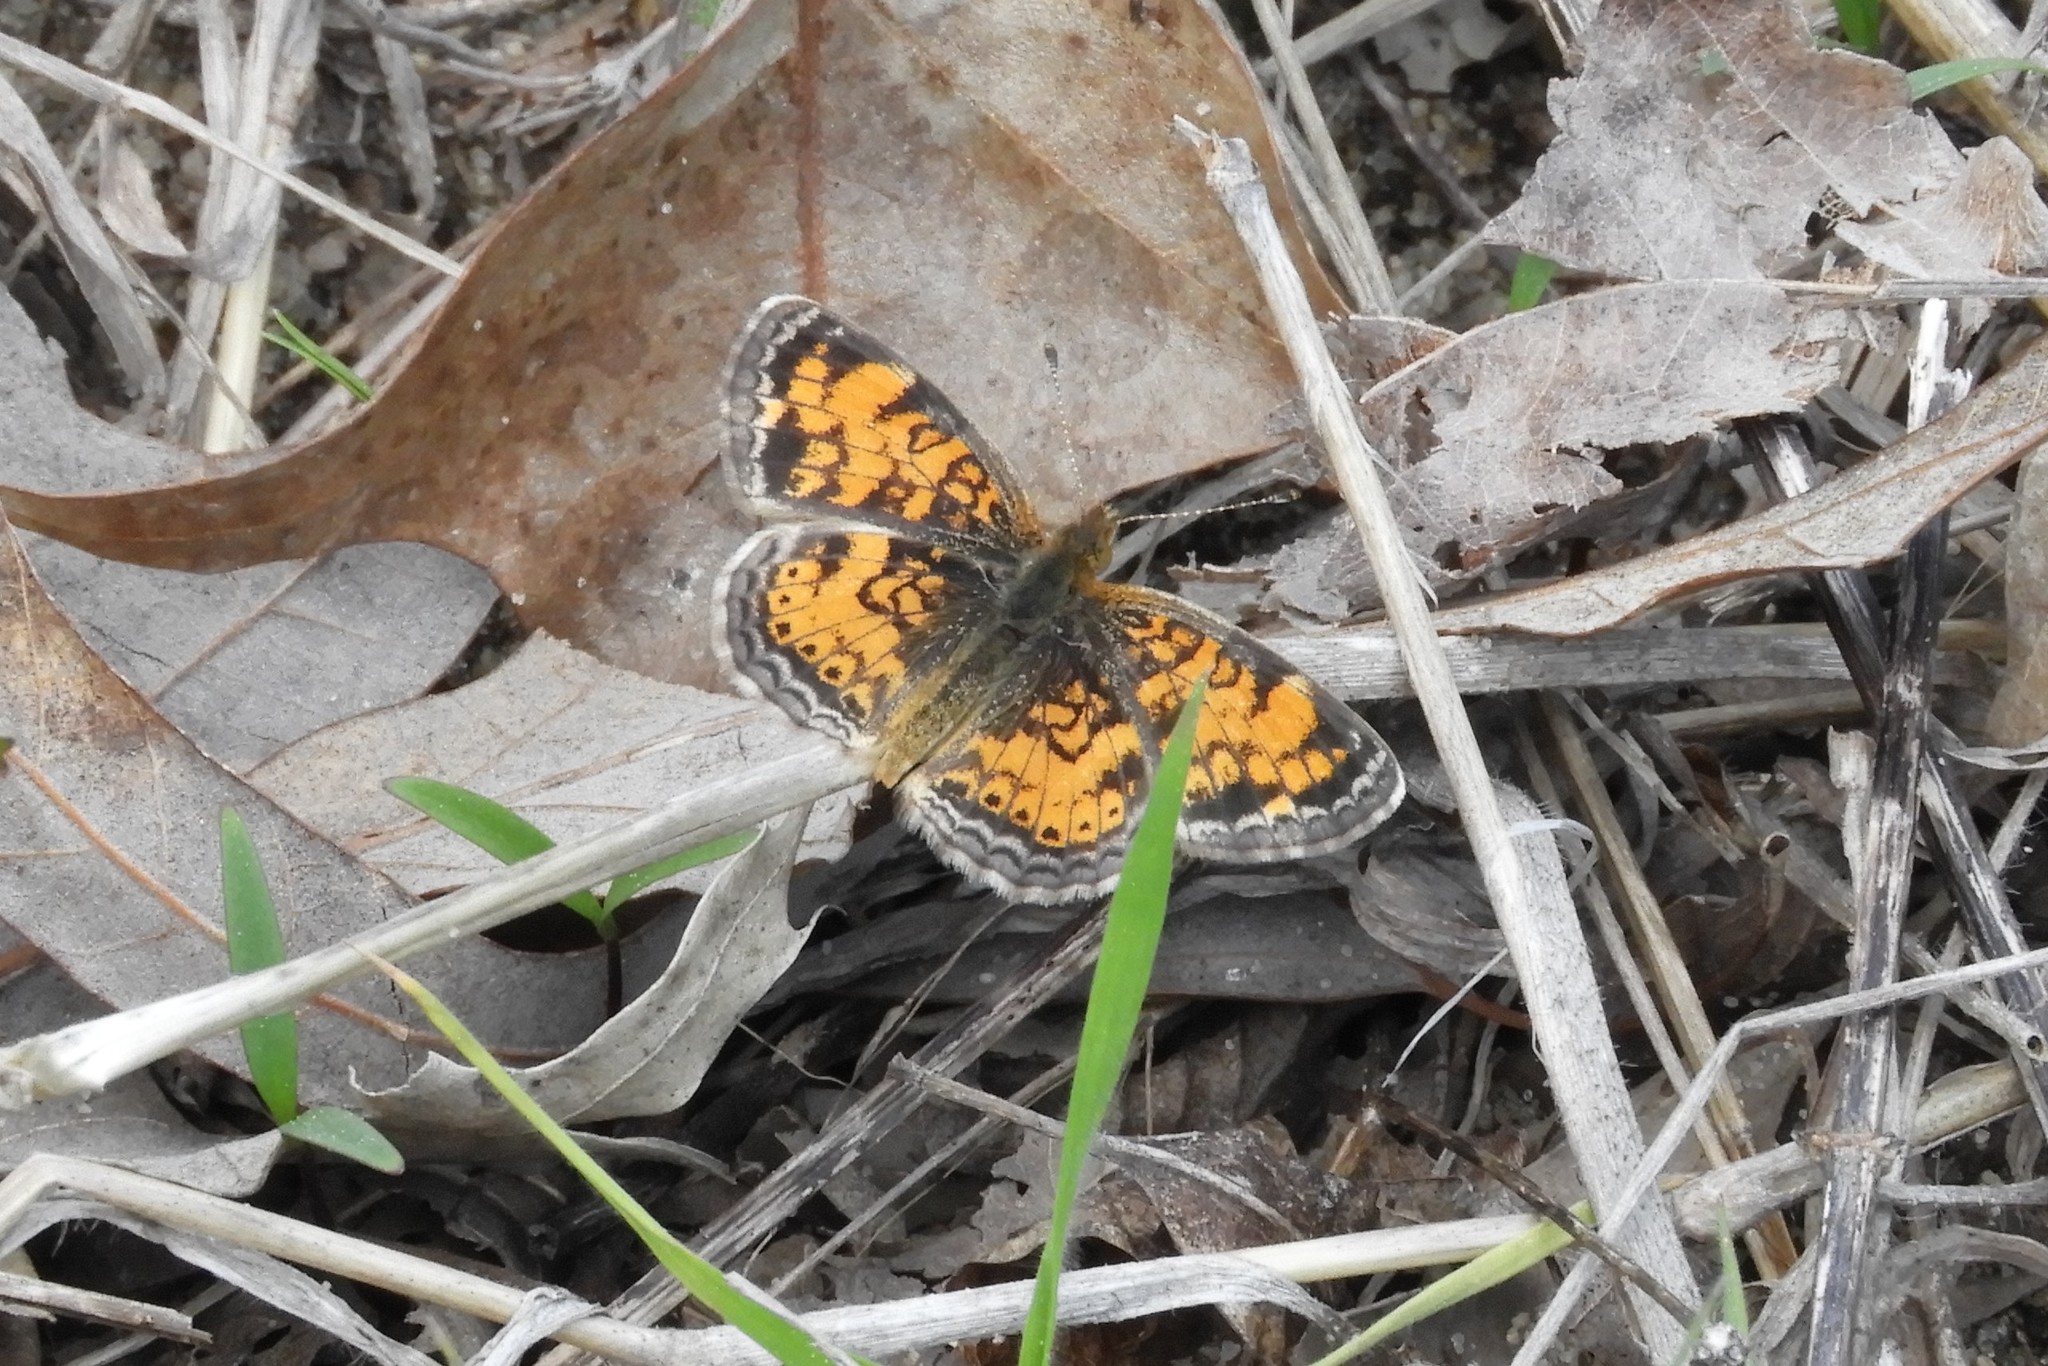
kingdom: Animalia
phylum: Arthropoda
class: Insecta
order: Lepidoptera
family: Nymphalidae
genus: Phyciodes
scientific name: Phyciodes tharos
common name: Pearl crescent
